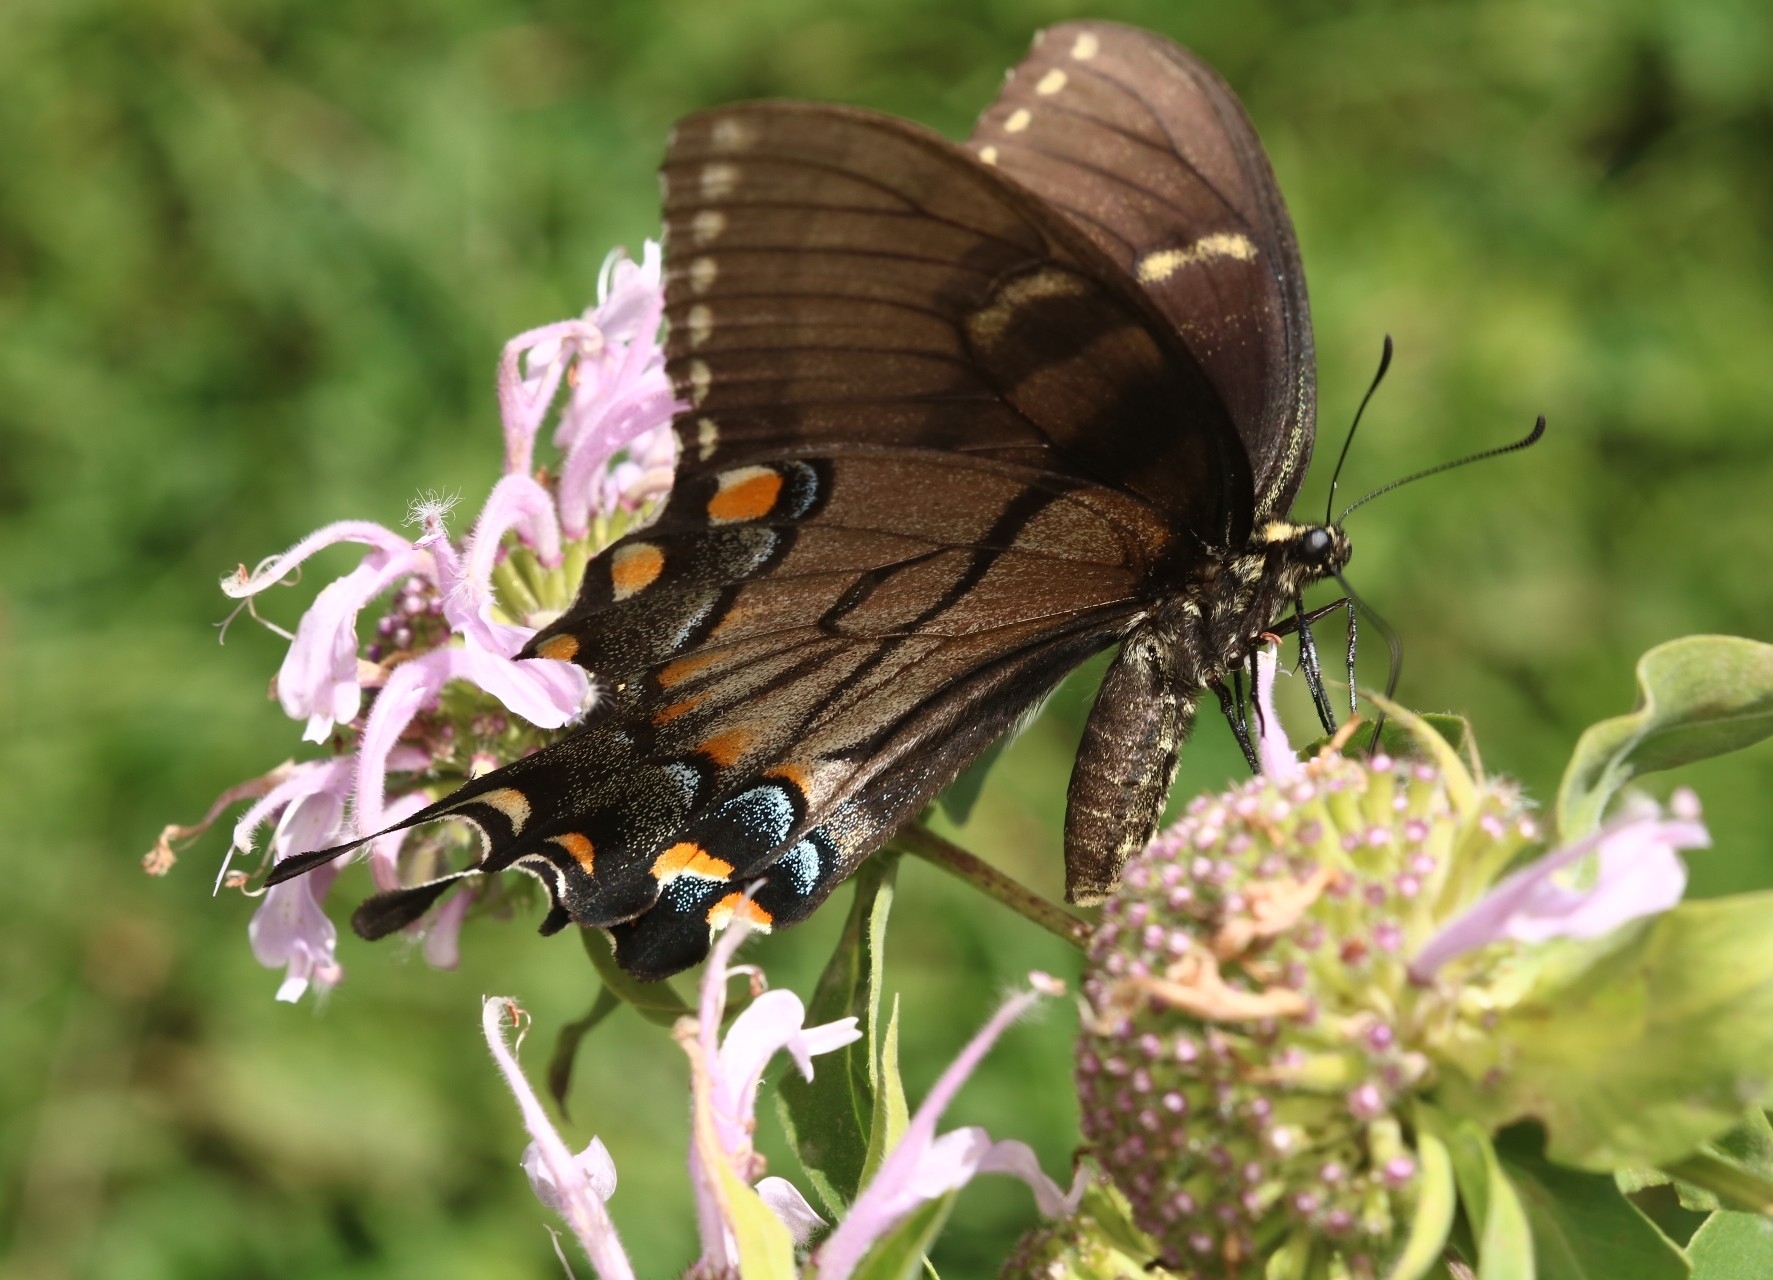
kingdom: Animalia
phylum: Arthropoda
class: Insecta
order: Lepidoptera
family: Papilionidae
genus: Papilio
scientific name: Papilio glaucus
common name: Tiger swallowtail
